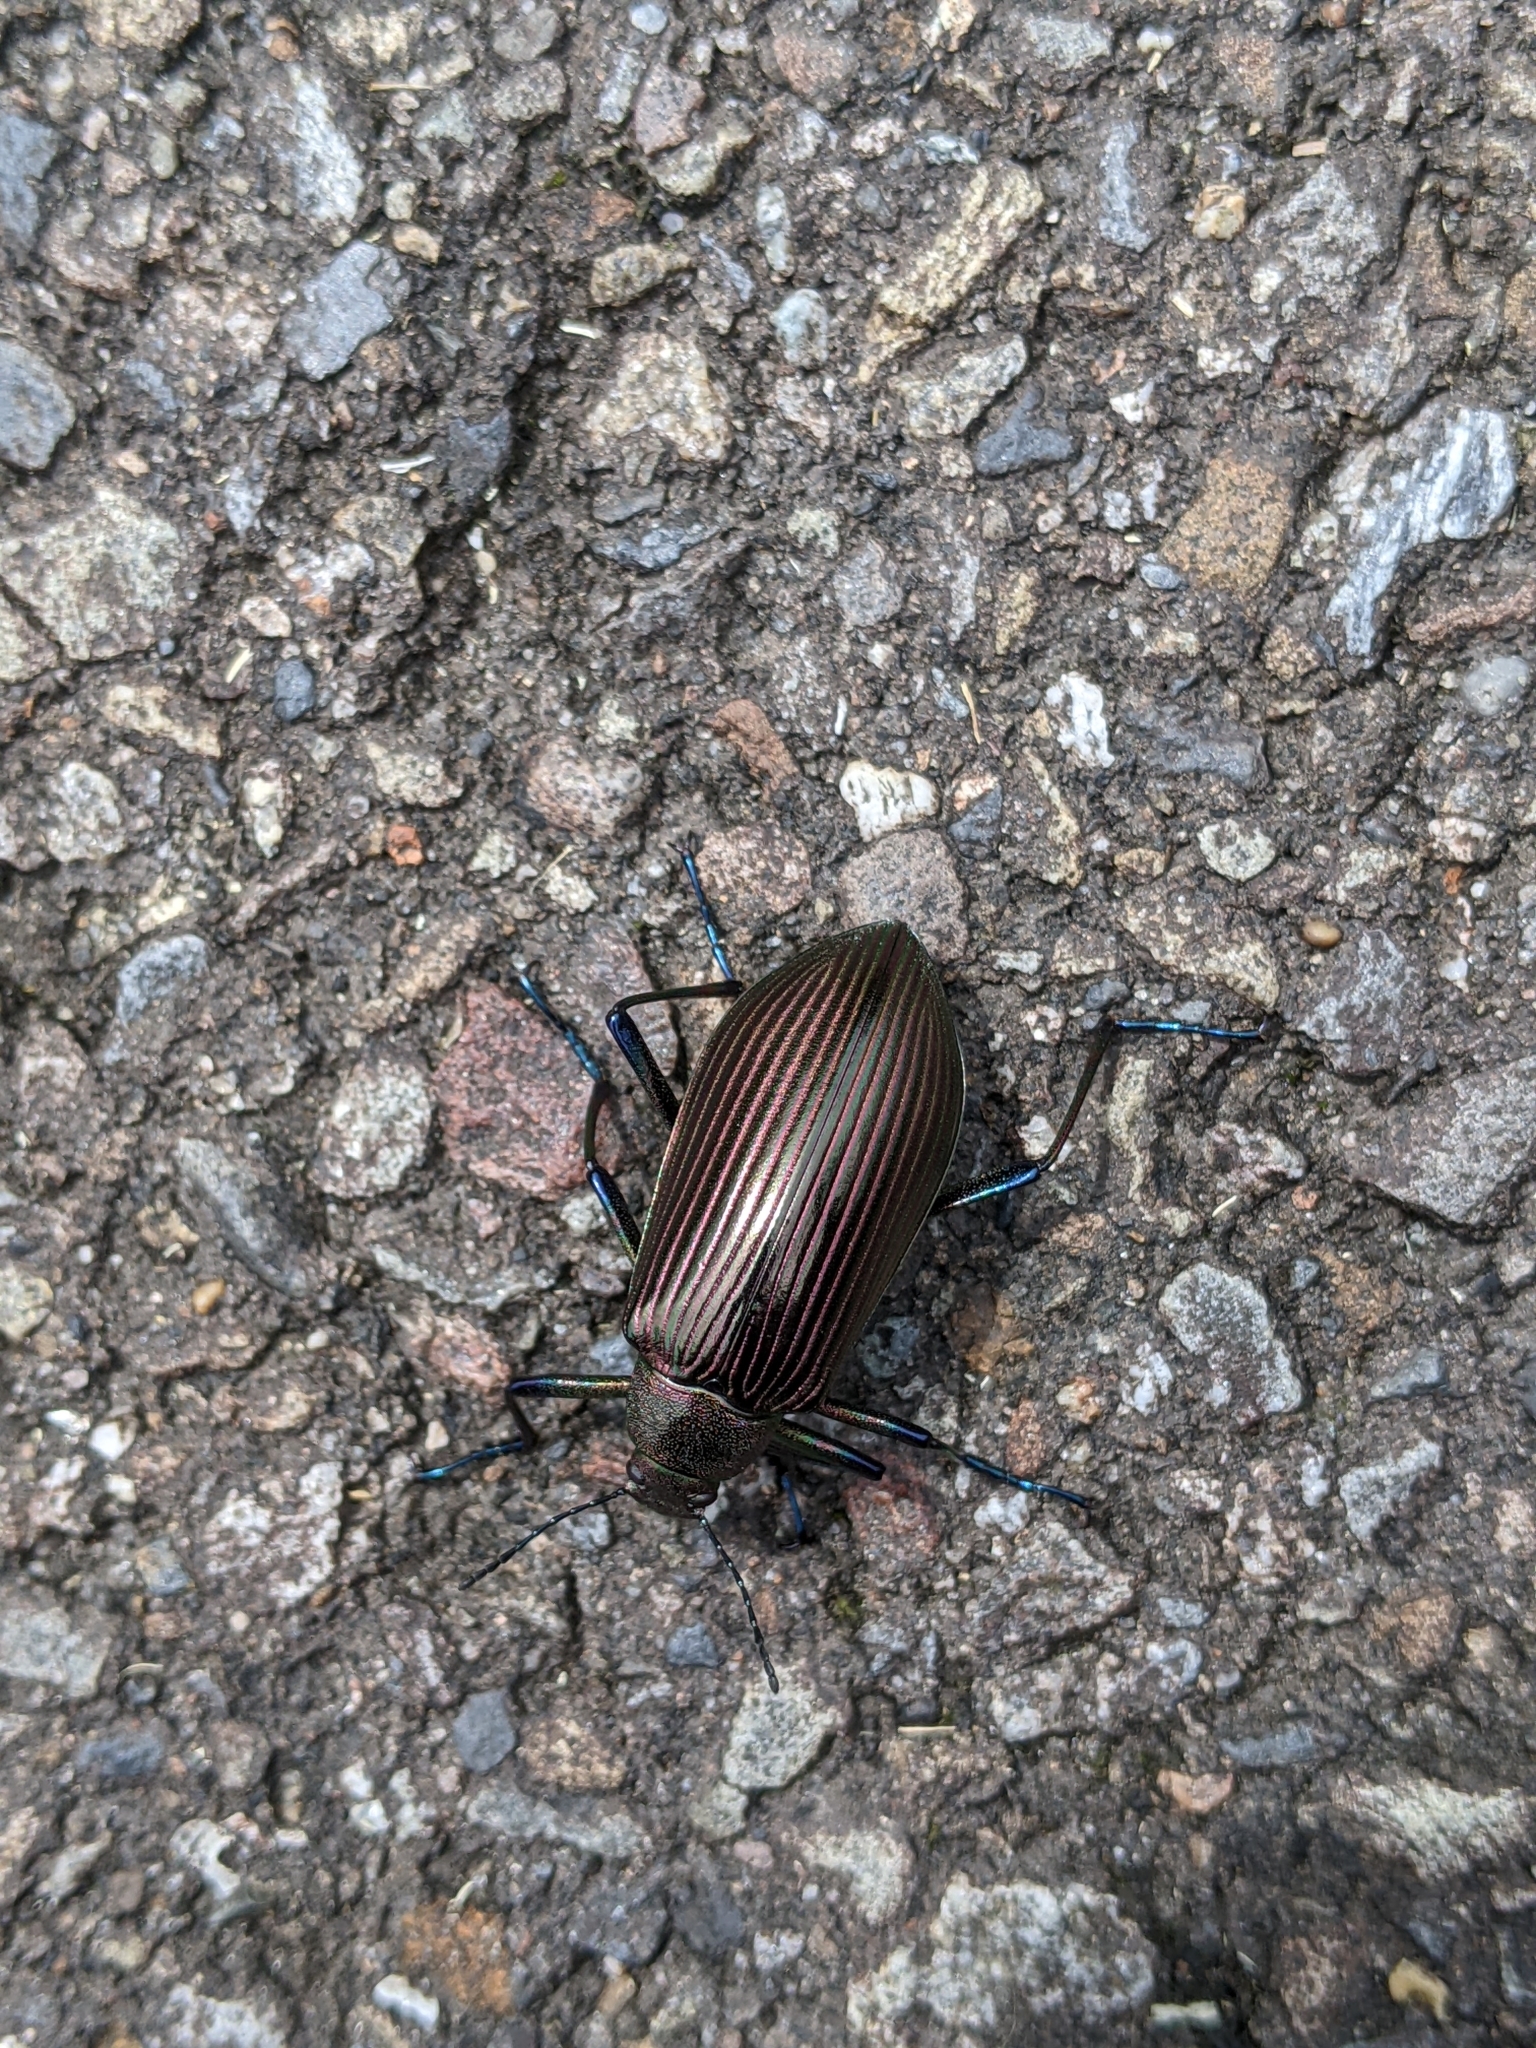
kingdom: Animalia
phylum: Arthropoda
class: Insecta
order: Coleoptera
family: Tenebrionidae
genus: Andocamaria
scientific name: Andocamaria formosana
